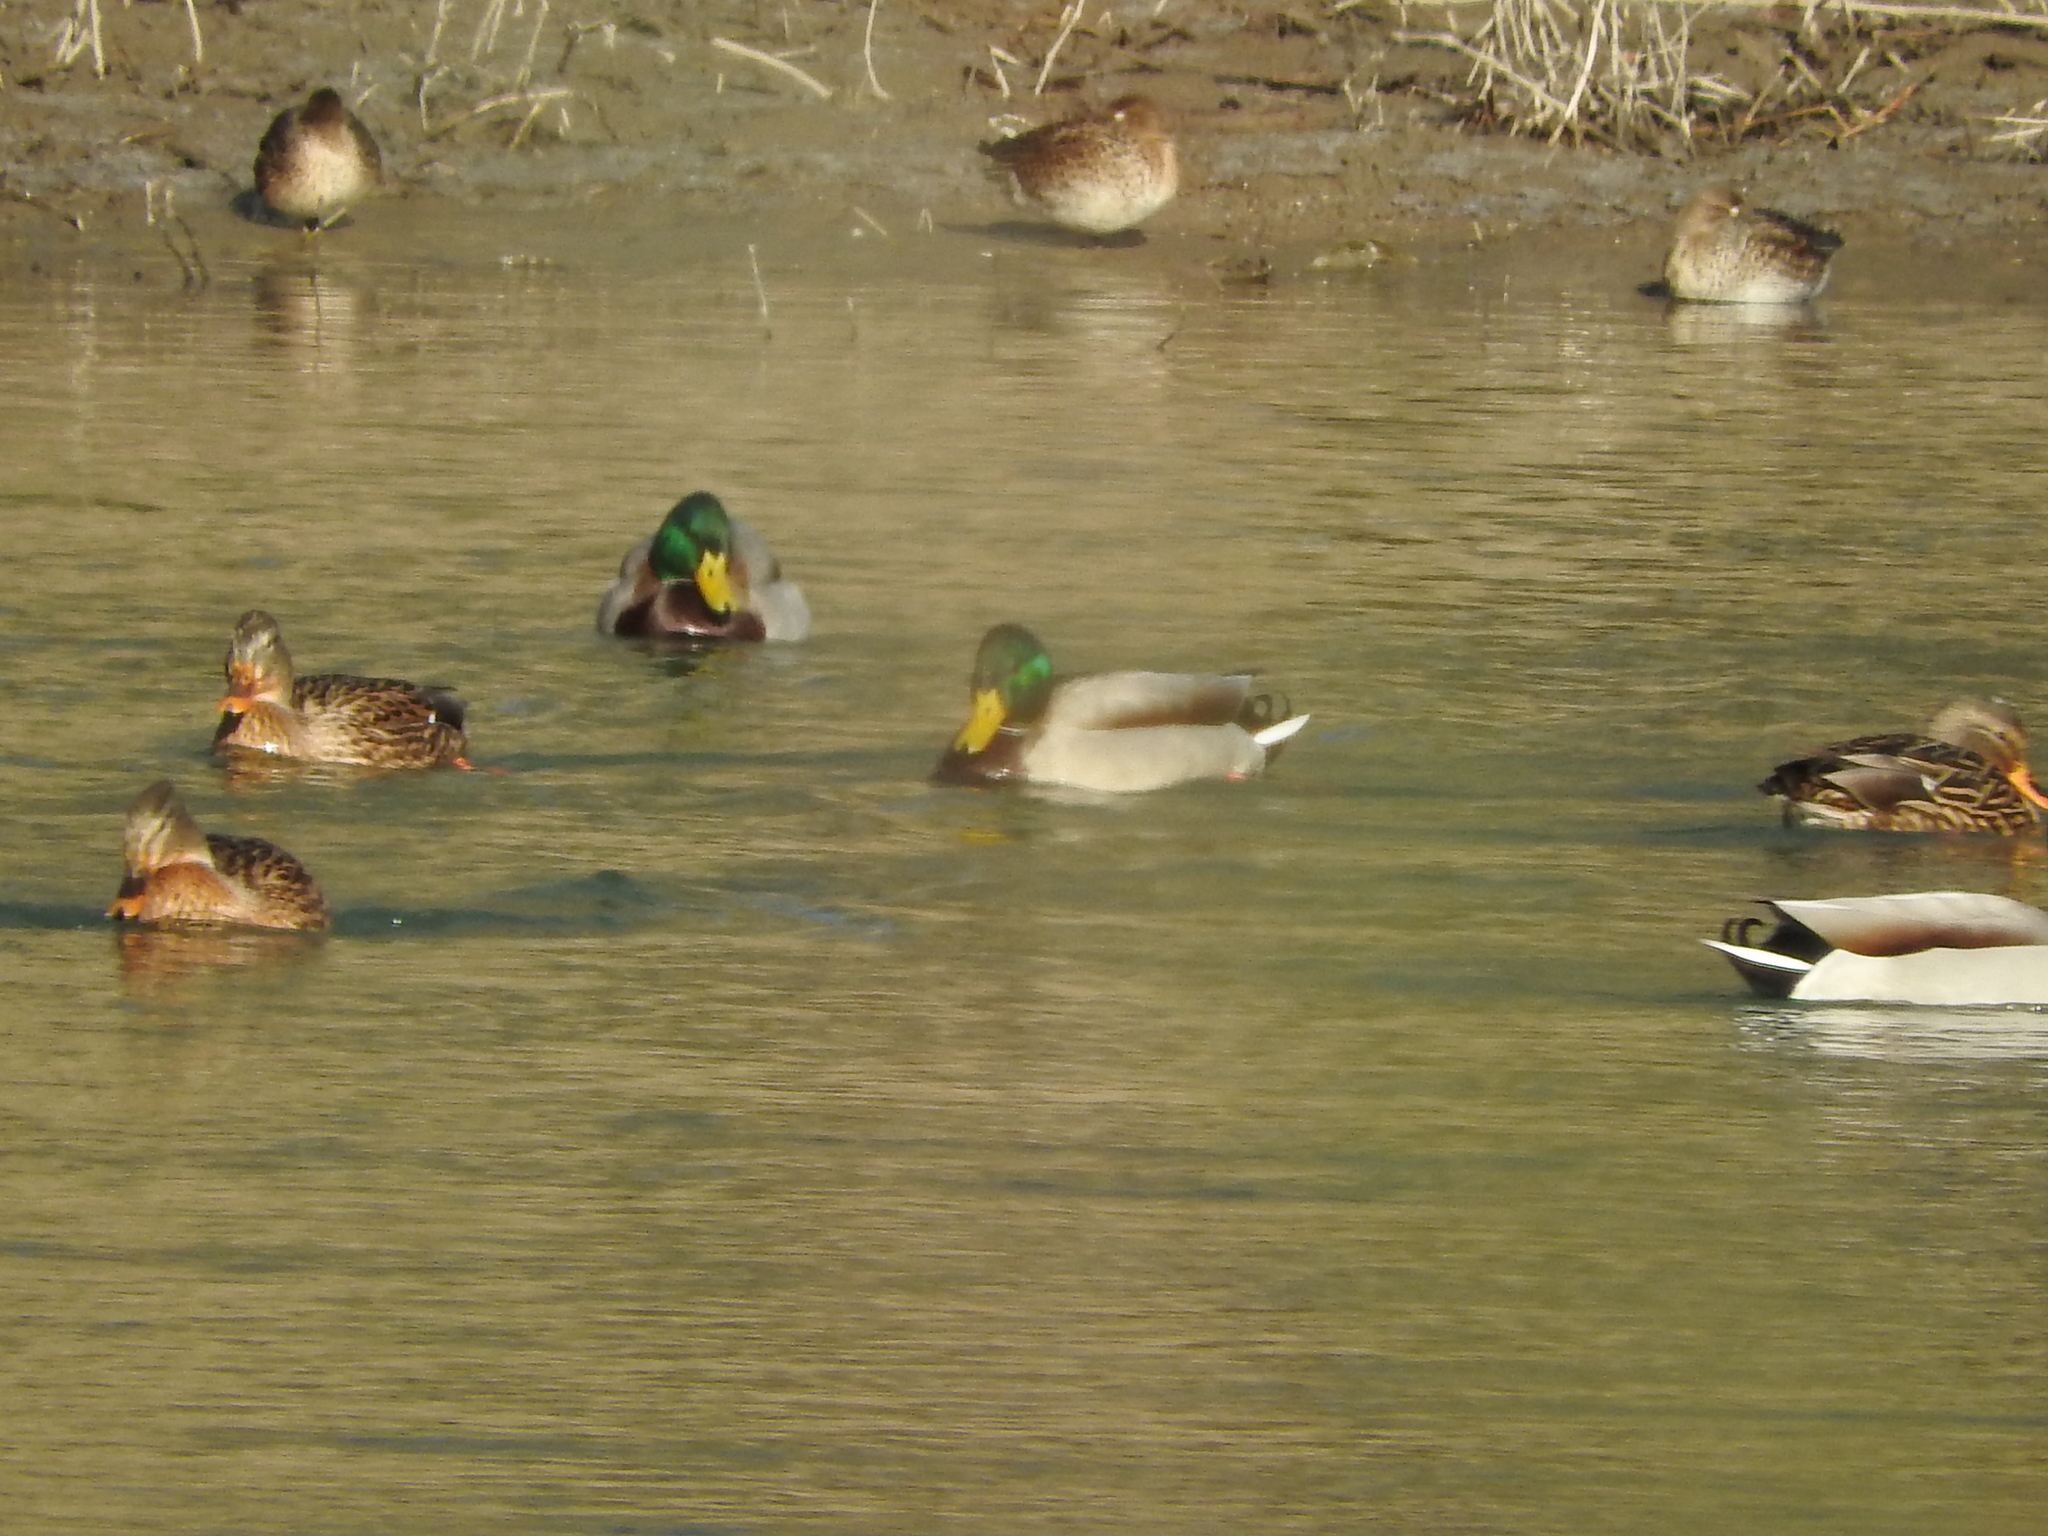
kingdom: Animalia
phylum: Chordata
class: Aves
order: Anseriformes
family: Anatidae
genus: Anas
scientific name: Anas platyrhynchos
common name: Mallard
